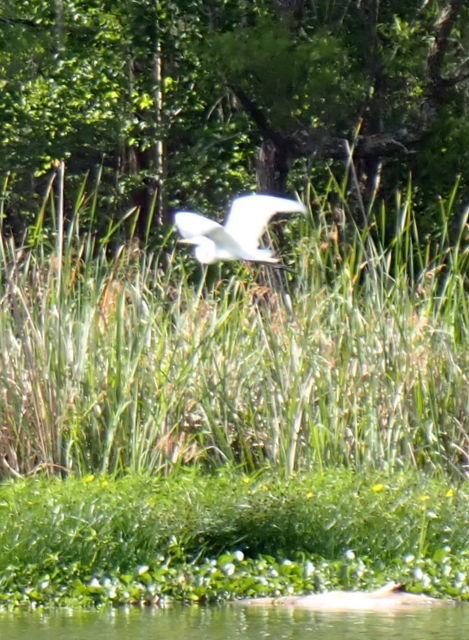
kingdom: Animalia
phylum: Chordata
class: Aves
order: Pelecaniformes
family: Ardeidae
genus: Ardea
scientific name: Ardea alba
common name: Great egret
